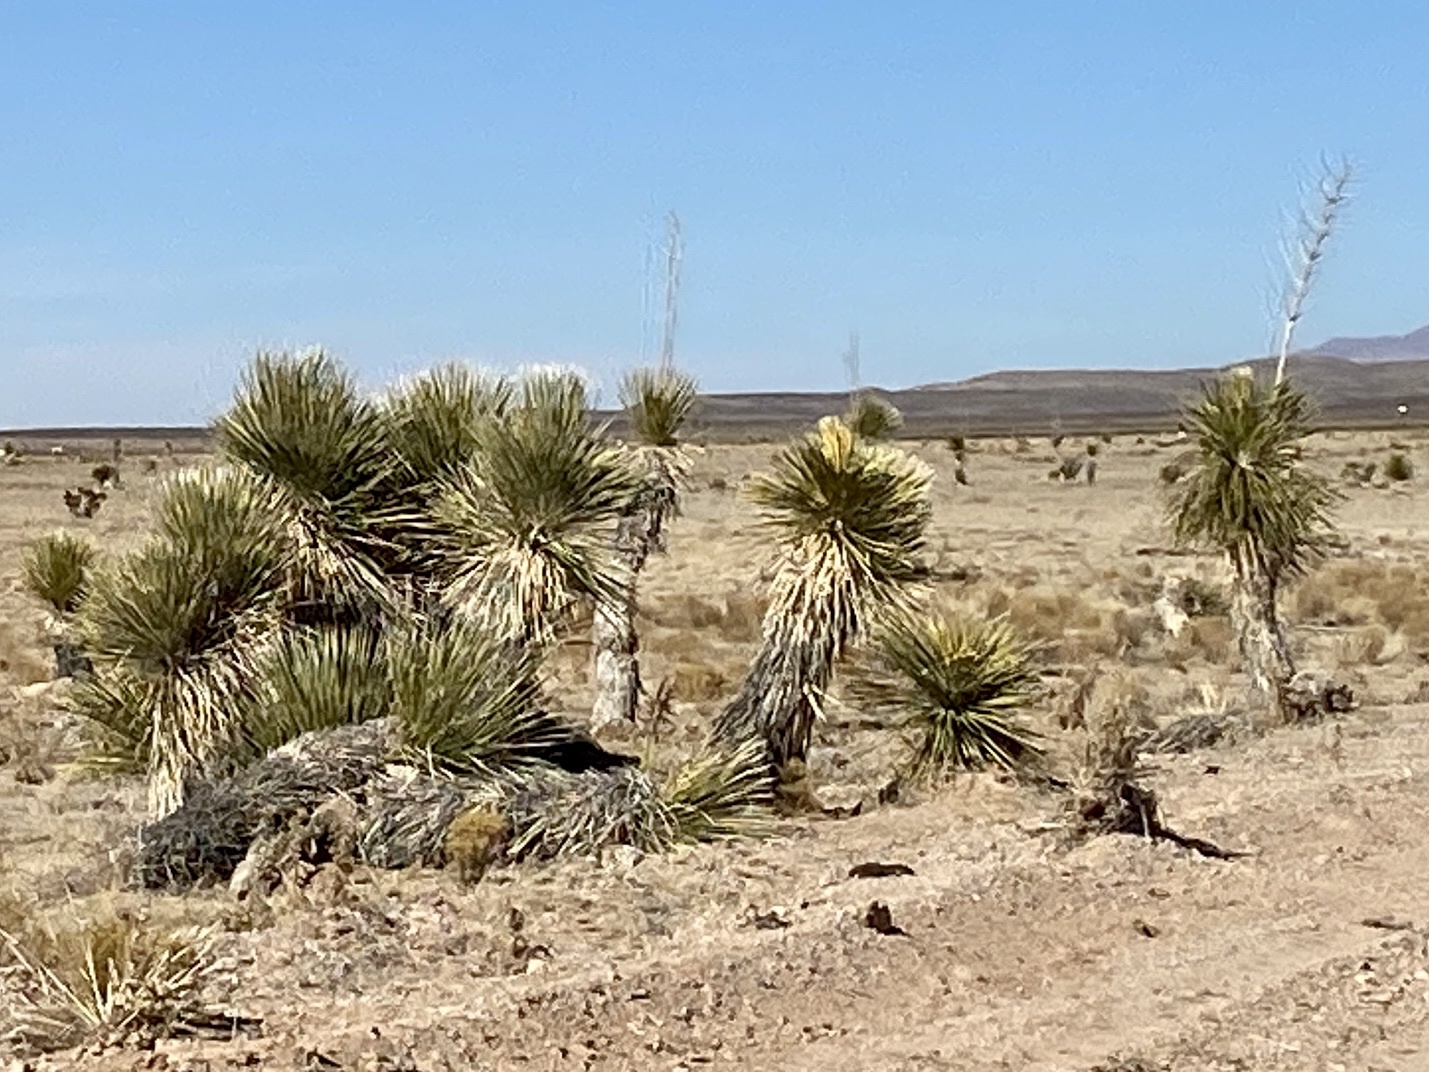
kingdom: Plantae
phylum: Tracheophyta
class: Liliopsida
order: Asparagales
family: Asparagaceae
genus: Yucca
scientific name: Yucca elata
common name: Palmella
